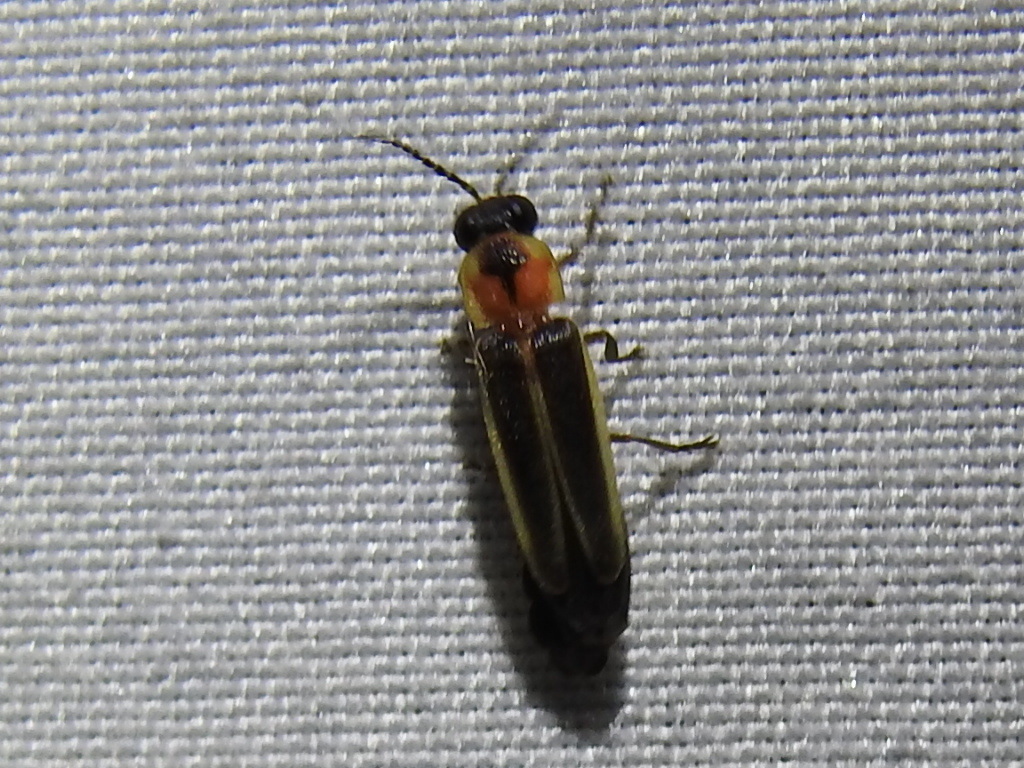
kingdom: Animalia
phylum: Arthropoda
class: Insecta
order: Coleoptera
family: Lampyridae
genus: Photinus
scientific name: Photinus dimissus
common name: Two-step flasher firefly
